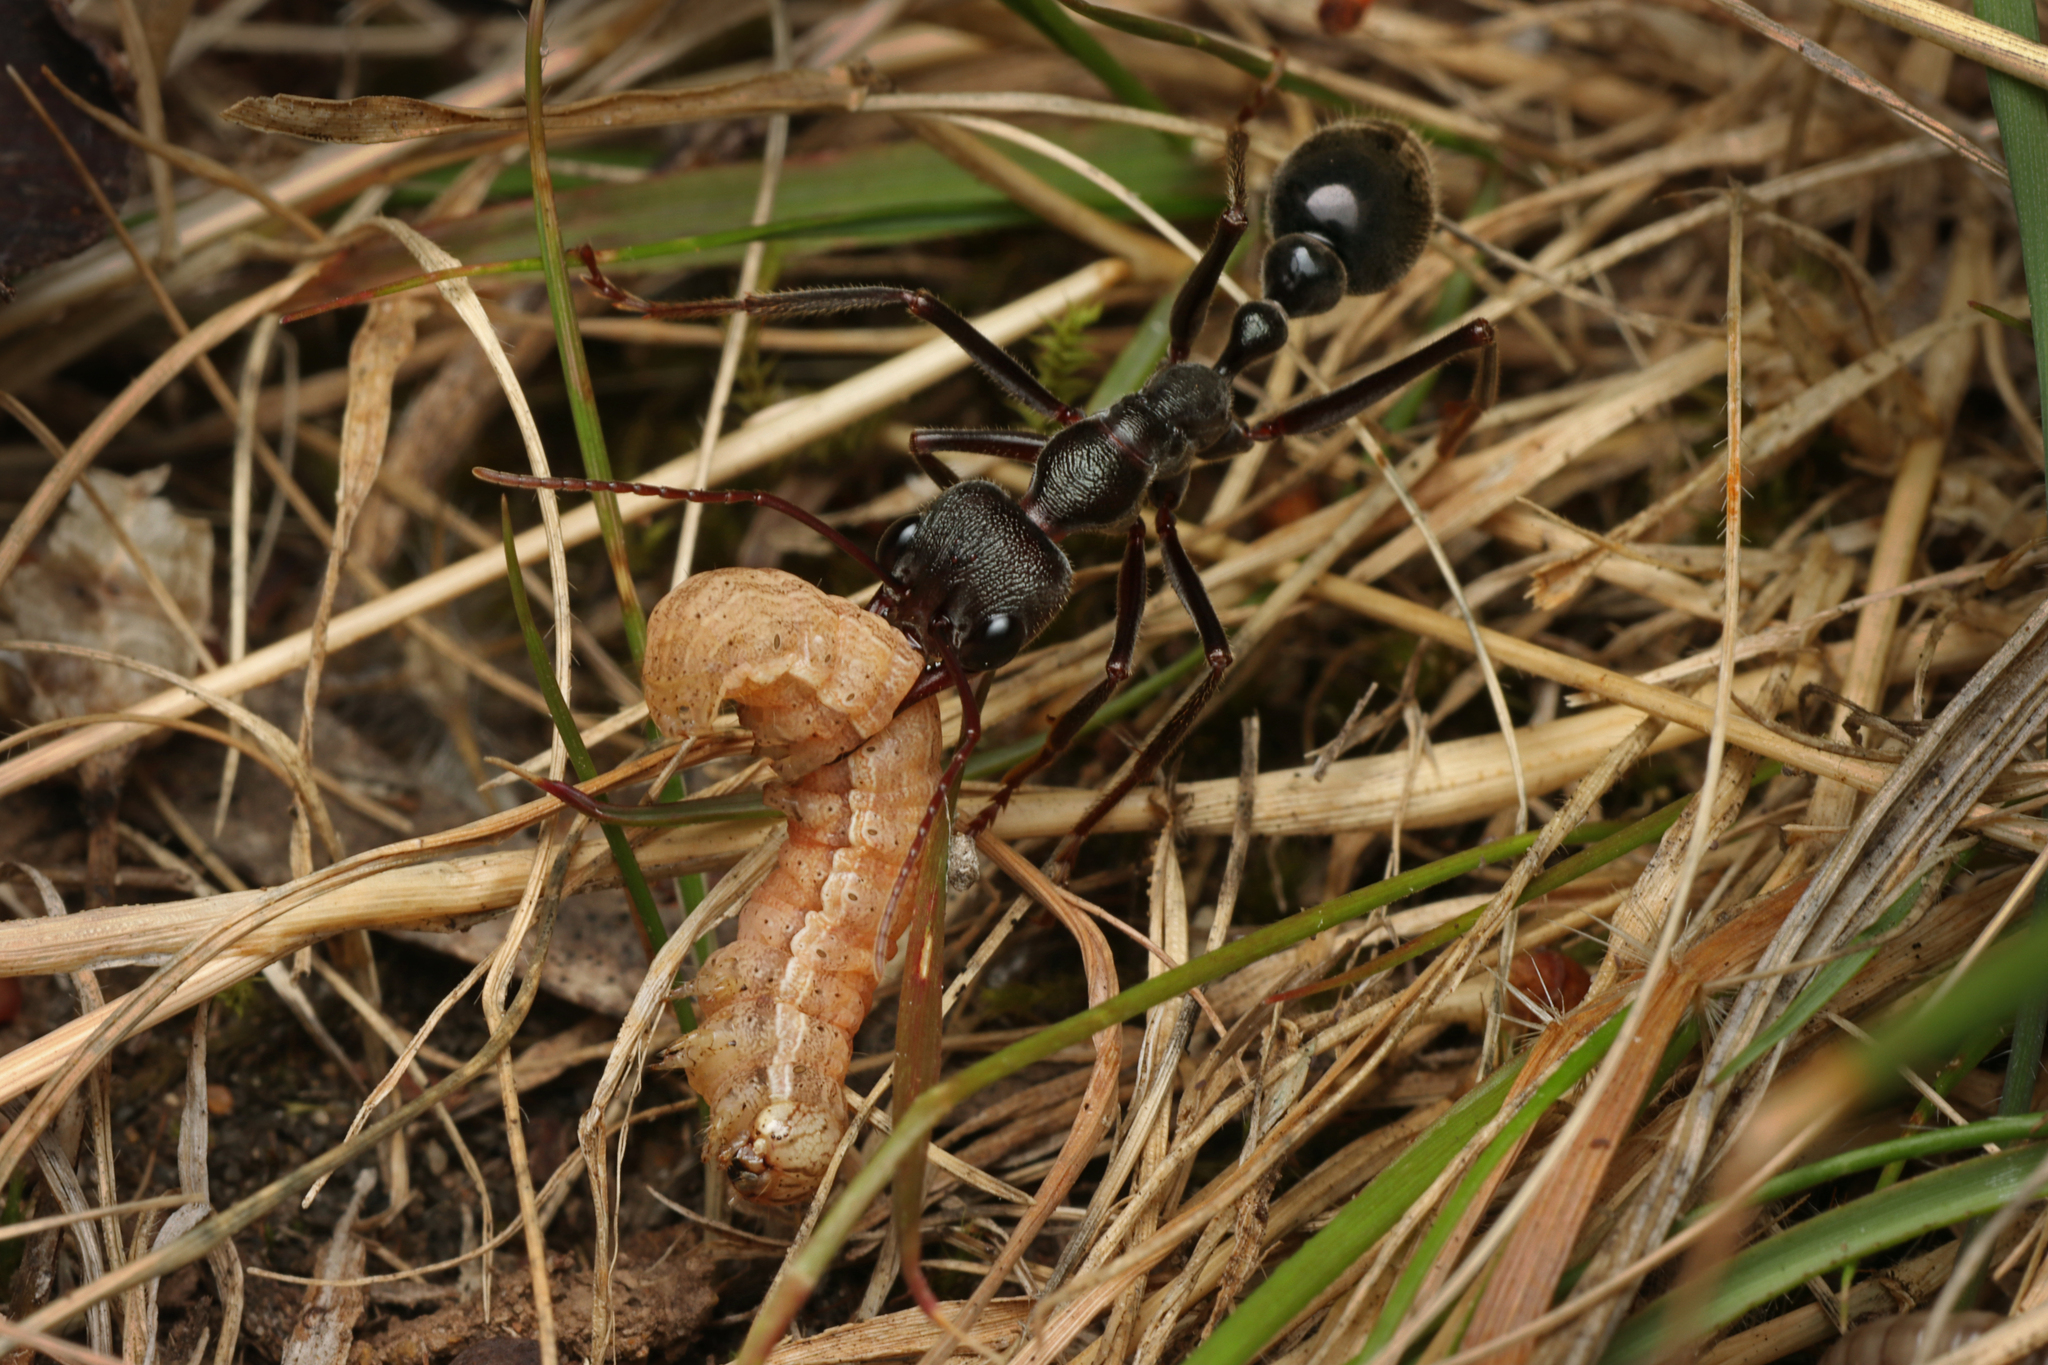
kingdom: Animalia
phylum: Arthropoda
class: Insecta
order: Hymenoptera
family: Formicidae
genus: Myrmecia
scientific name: Myrmecia pyriformis
